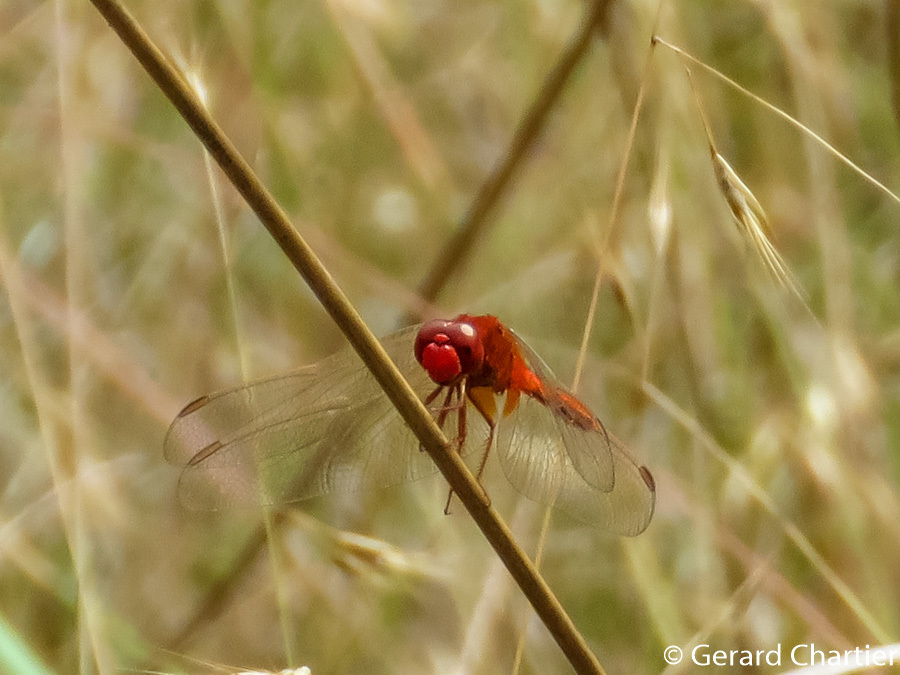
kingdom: Animalia
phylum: Arthropoda
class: Insecta
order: Odonata
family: Libellulidae
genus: Crocothemis
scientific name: Crocothemis servilia
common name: Scarlet skimmer
